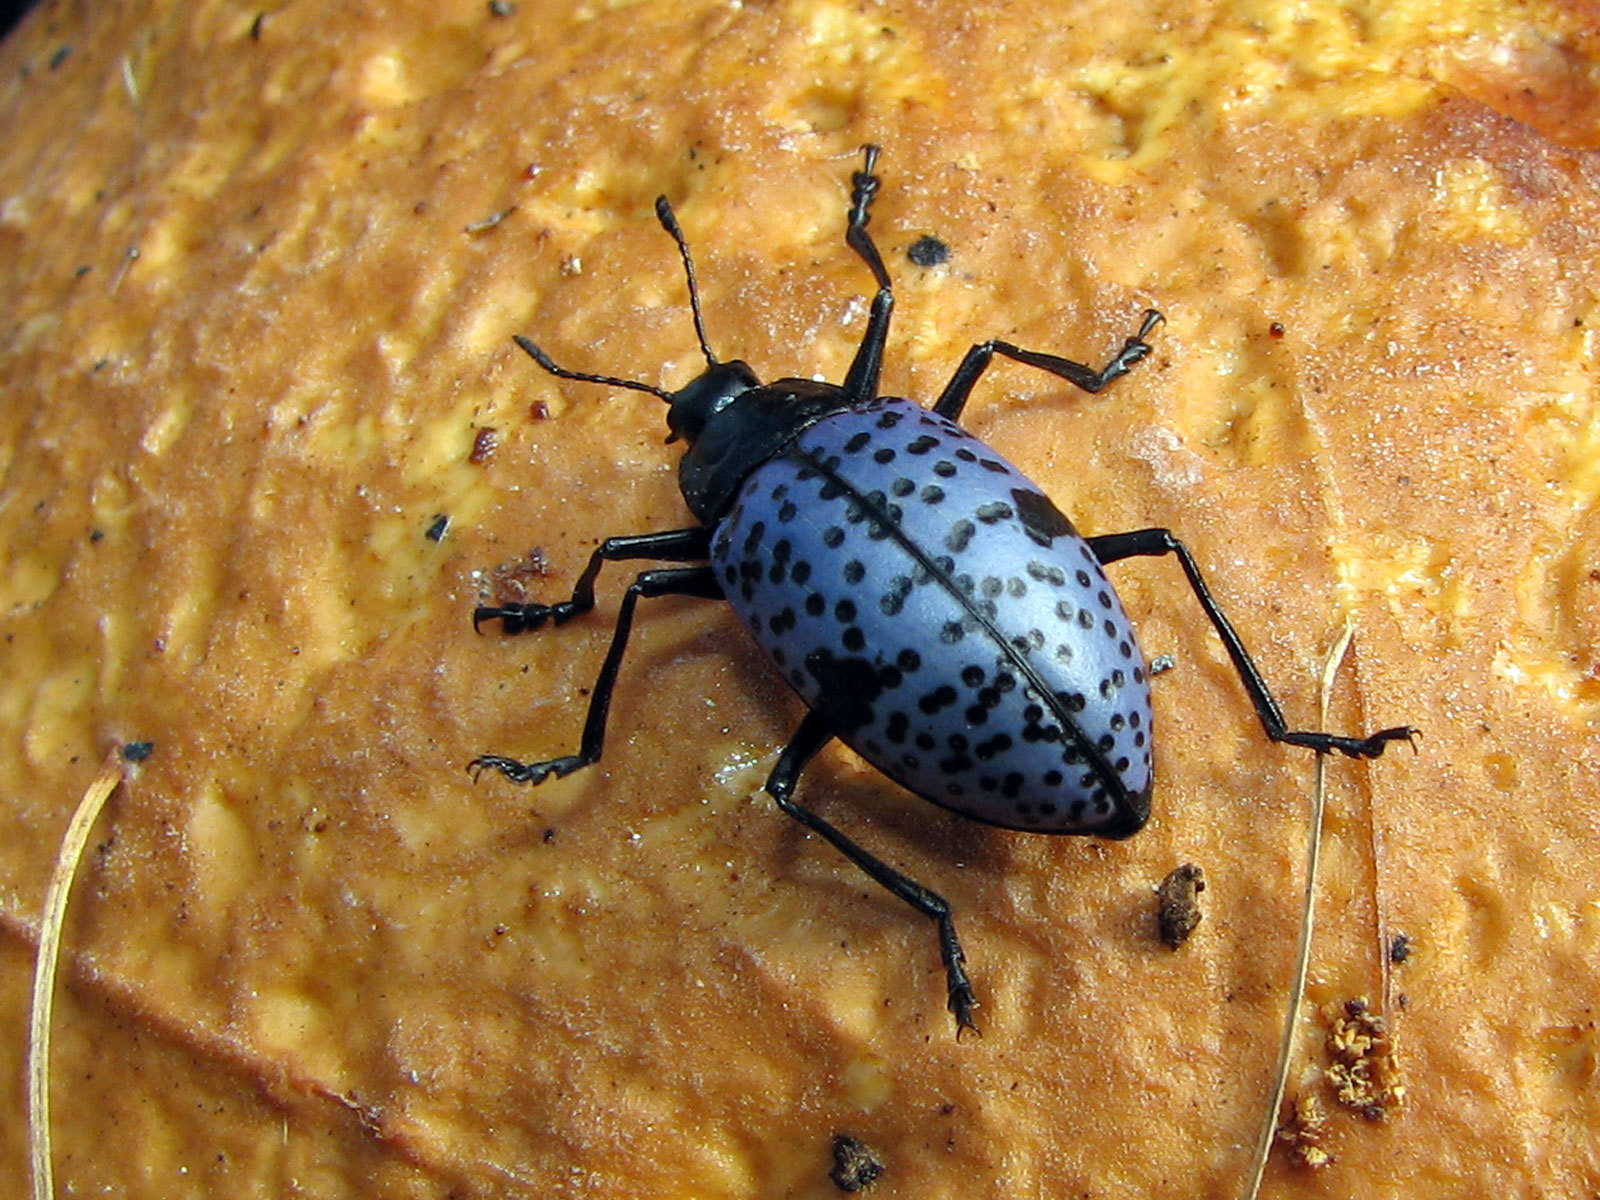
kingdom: Animalia
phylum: Arthropoda
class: Insecta
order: Coleoptera
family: Erotylidae
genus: Gibbifer
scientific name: Gibbifer californicus
